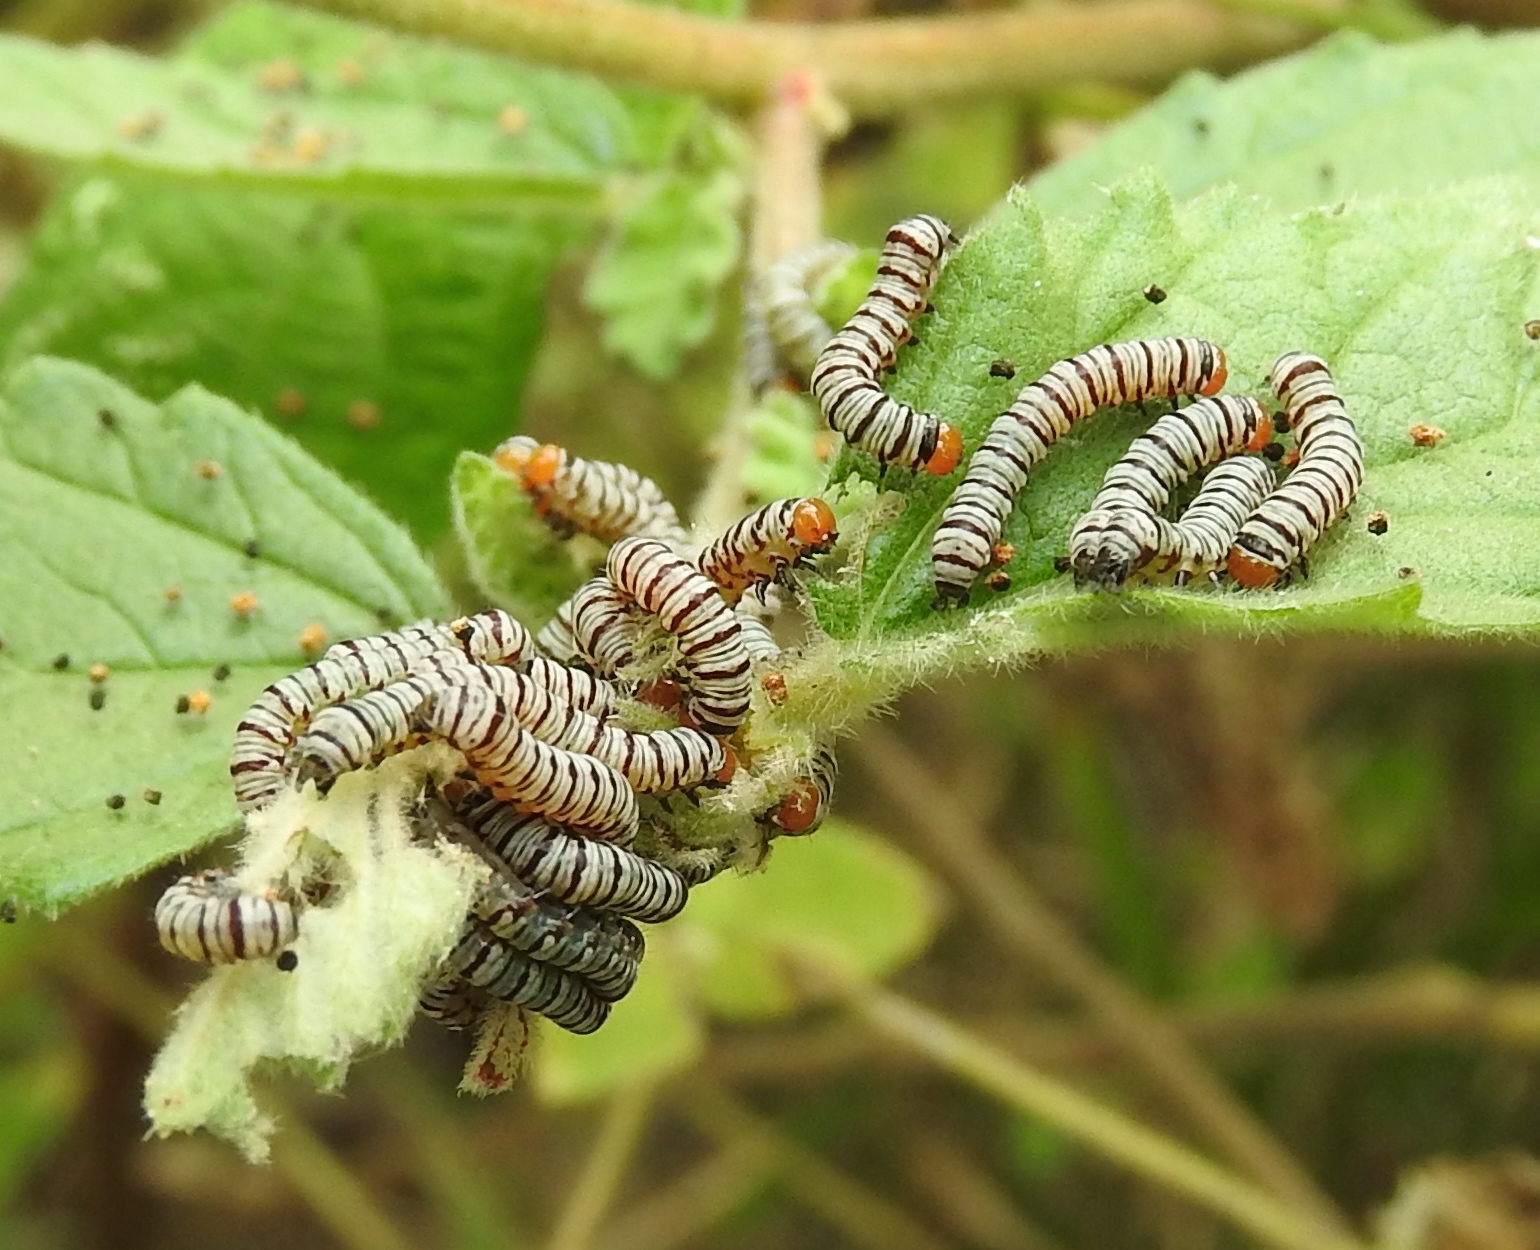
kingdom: Animalia
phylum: Arthropoda
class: Insecta
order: Lepidoptera
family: Erebidae
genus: Diphthera
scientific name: Diphthera festiva
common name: Hieroglyphic moth
